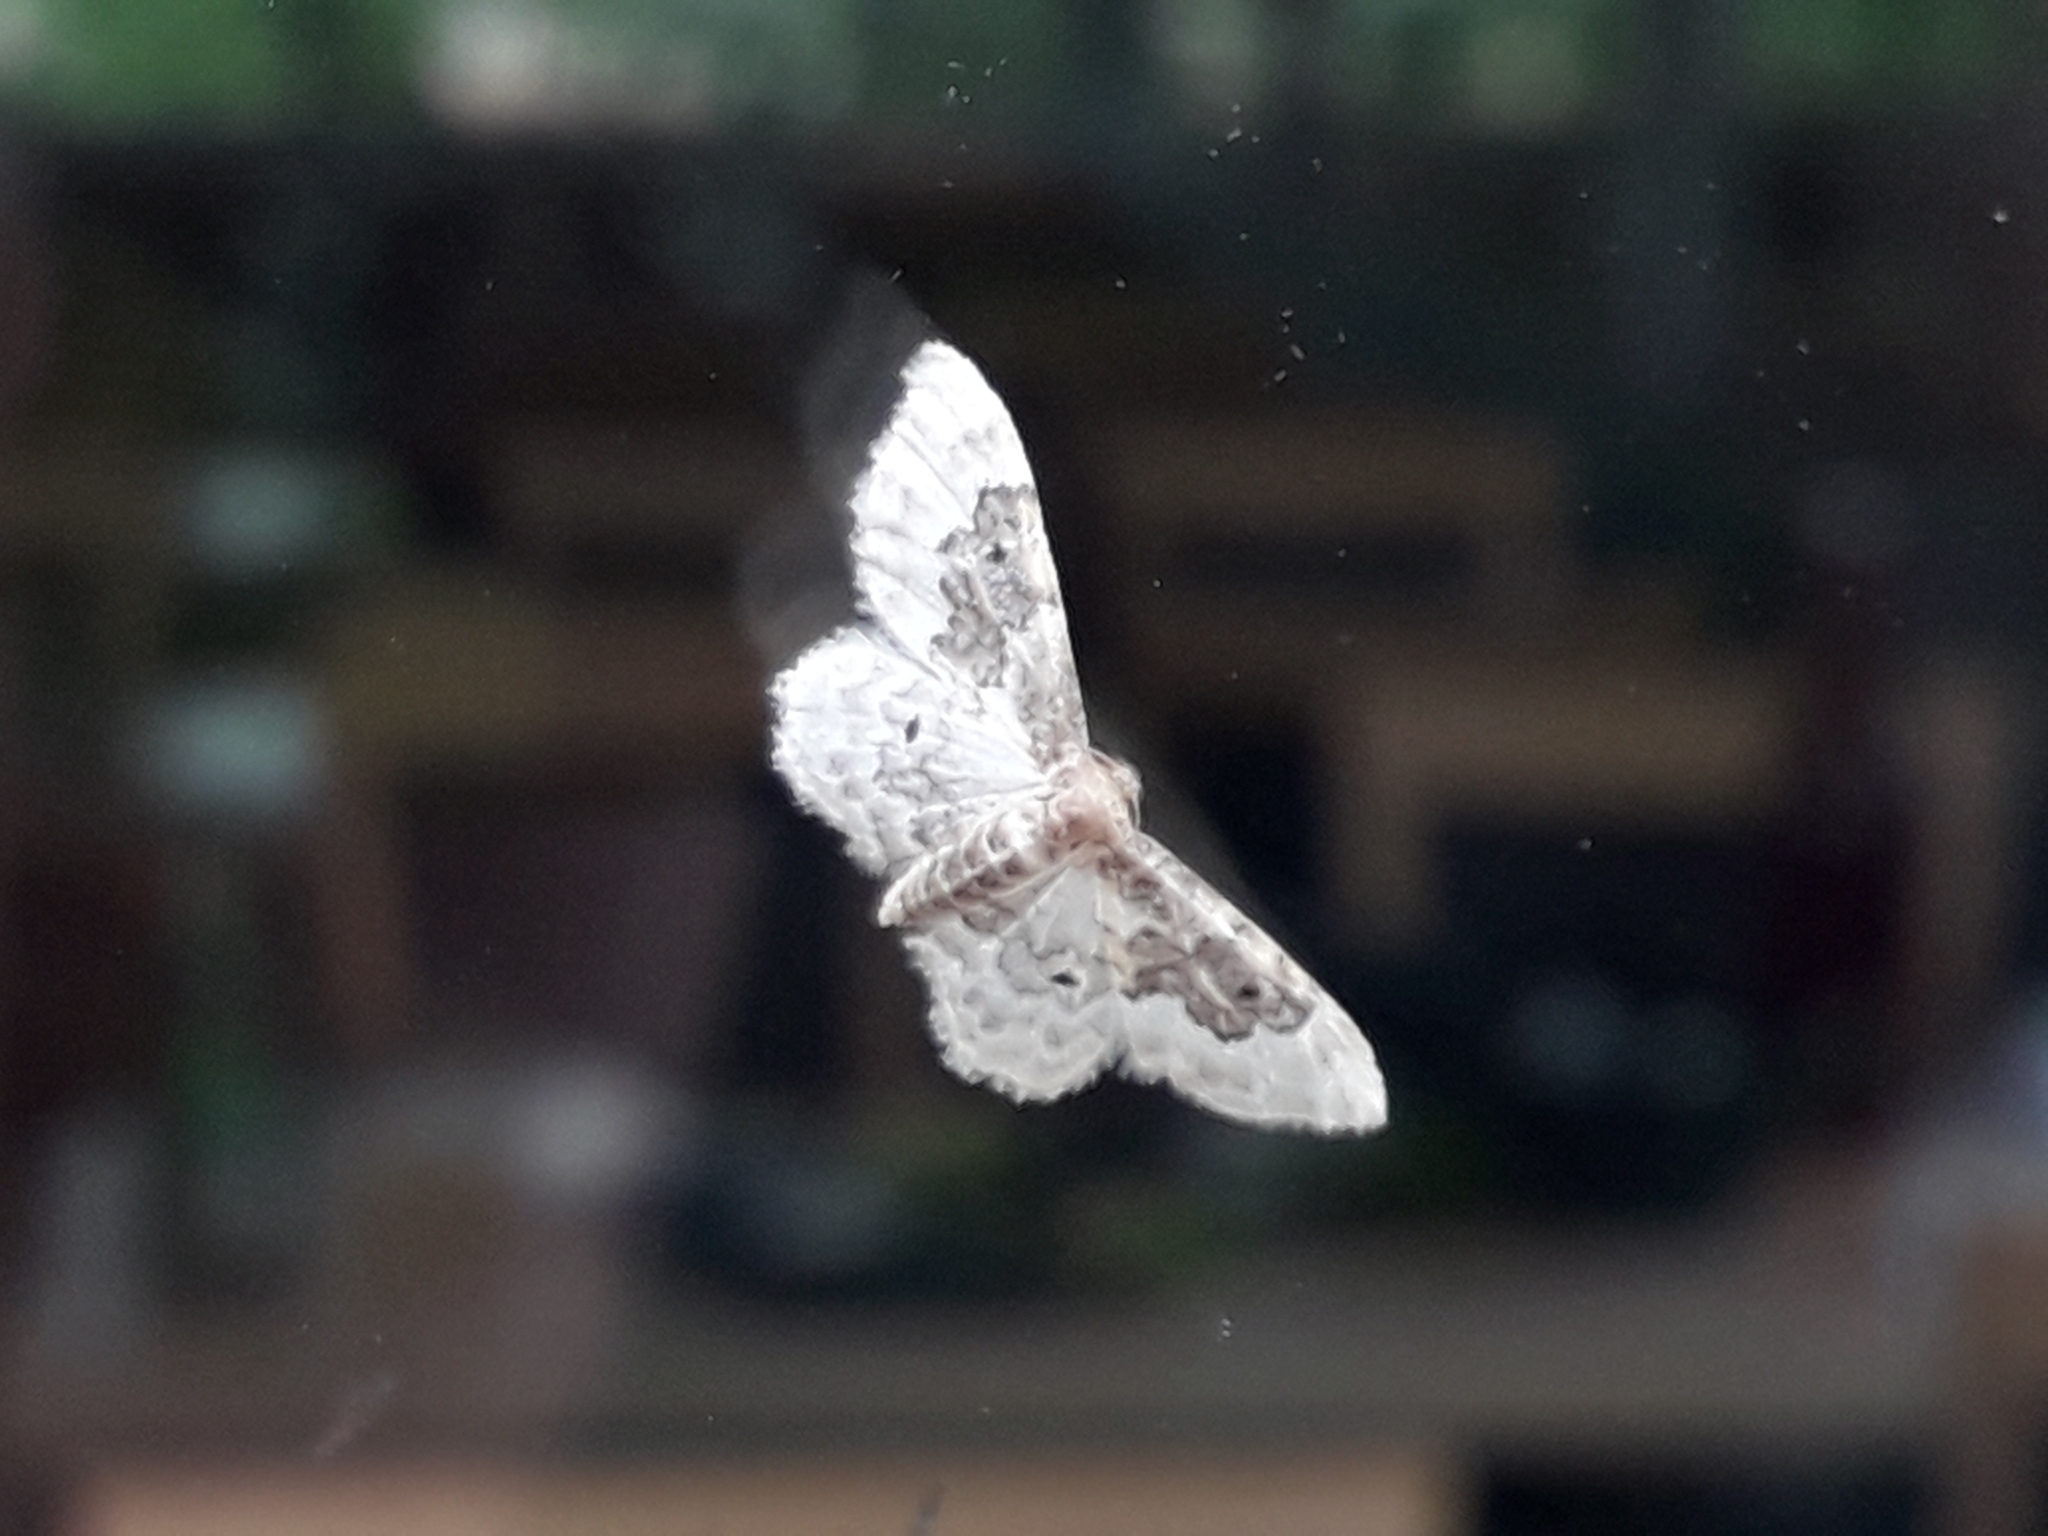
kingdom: Animalia
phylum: Arthropoda
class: Insecta
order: Lepidoptera
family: Geometridae
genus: Idaea
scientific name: Idaea rusticata
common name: Least carpet
